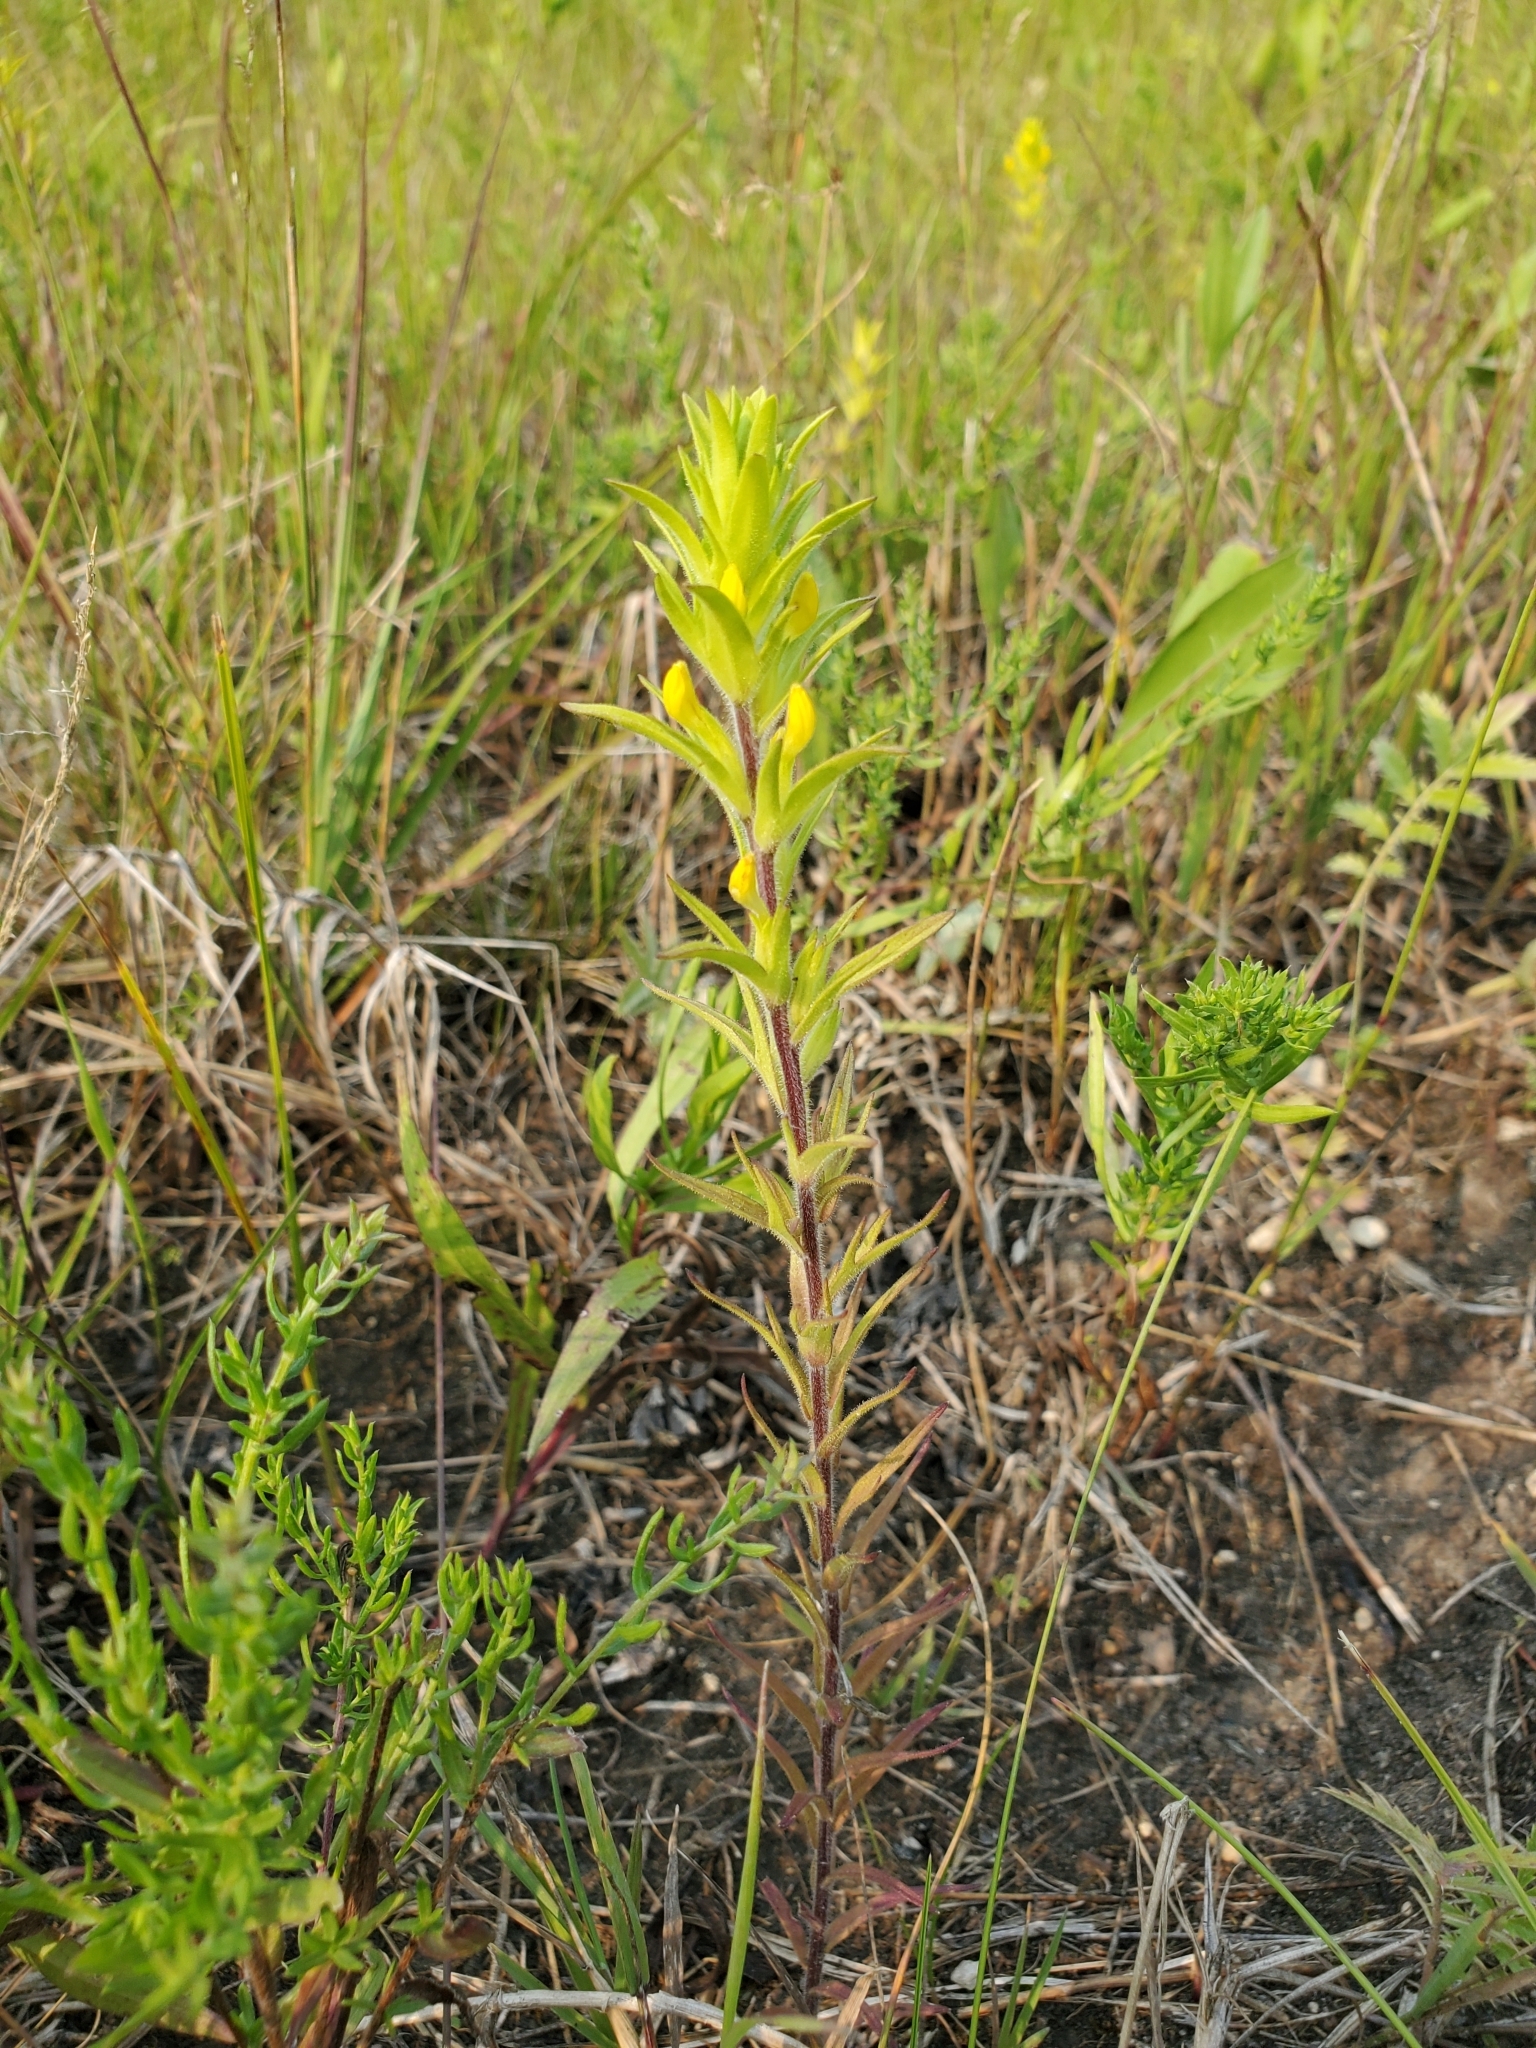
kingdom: Plantae
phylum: Tracheophyta
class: Magnoliopsida
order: Lamiales
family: Orobanchaceae
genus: Orthocarpus
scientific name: Orthocarpus luteus
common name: Golden-tongue owl's-clover
